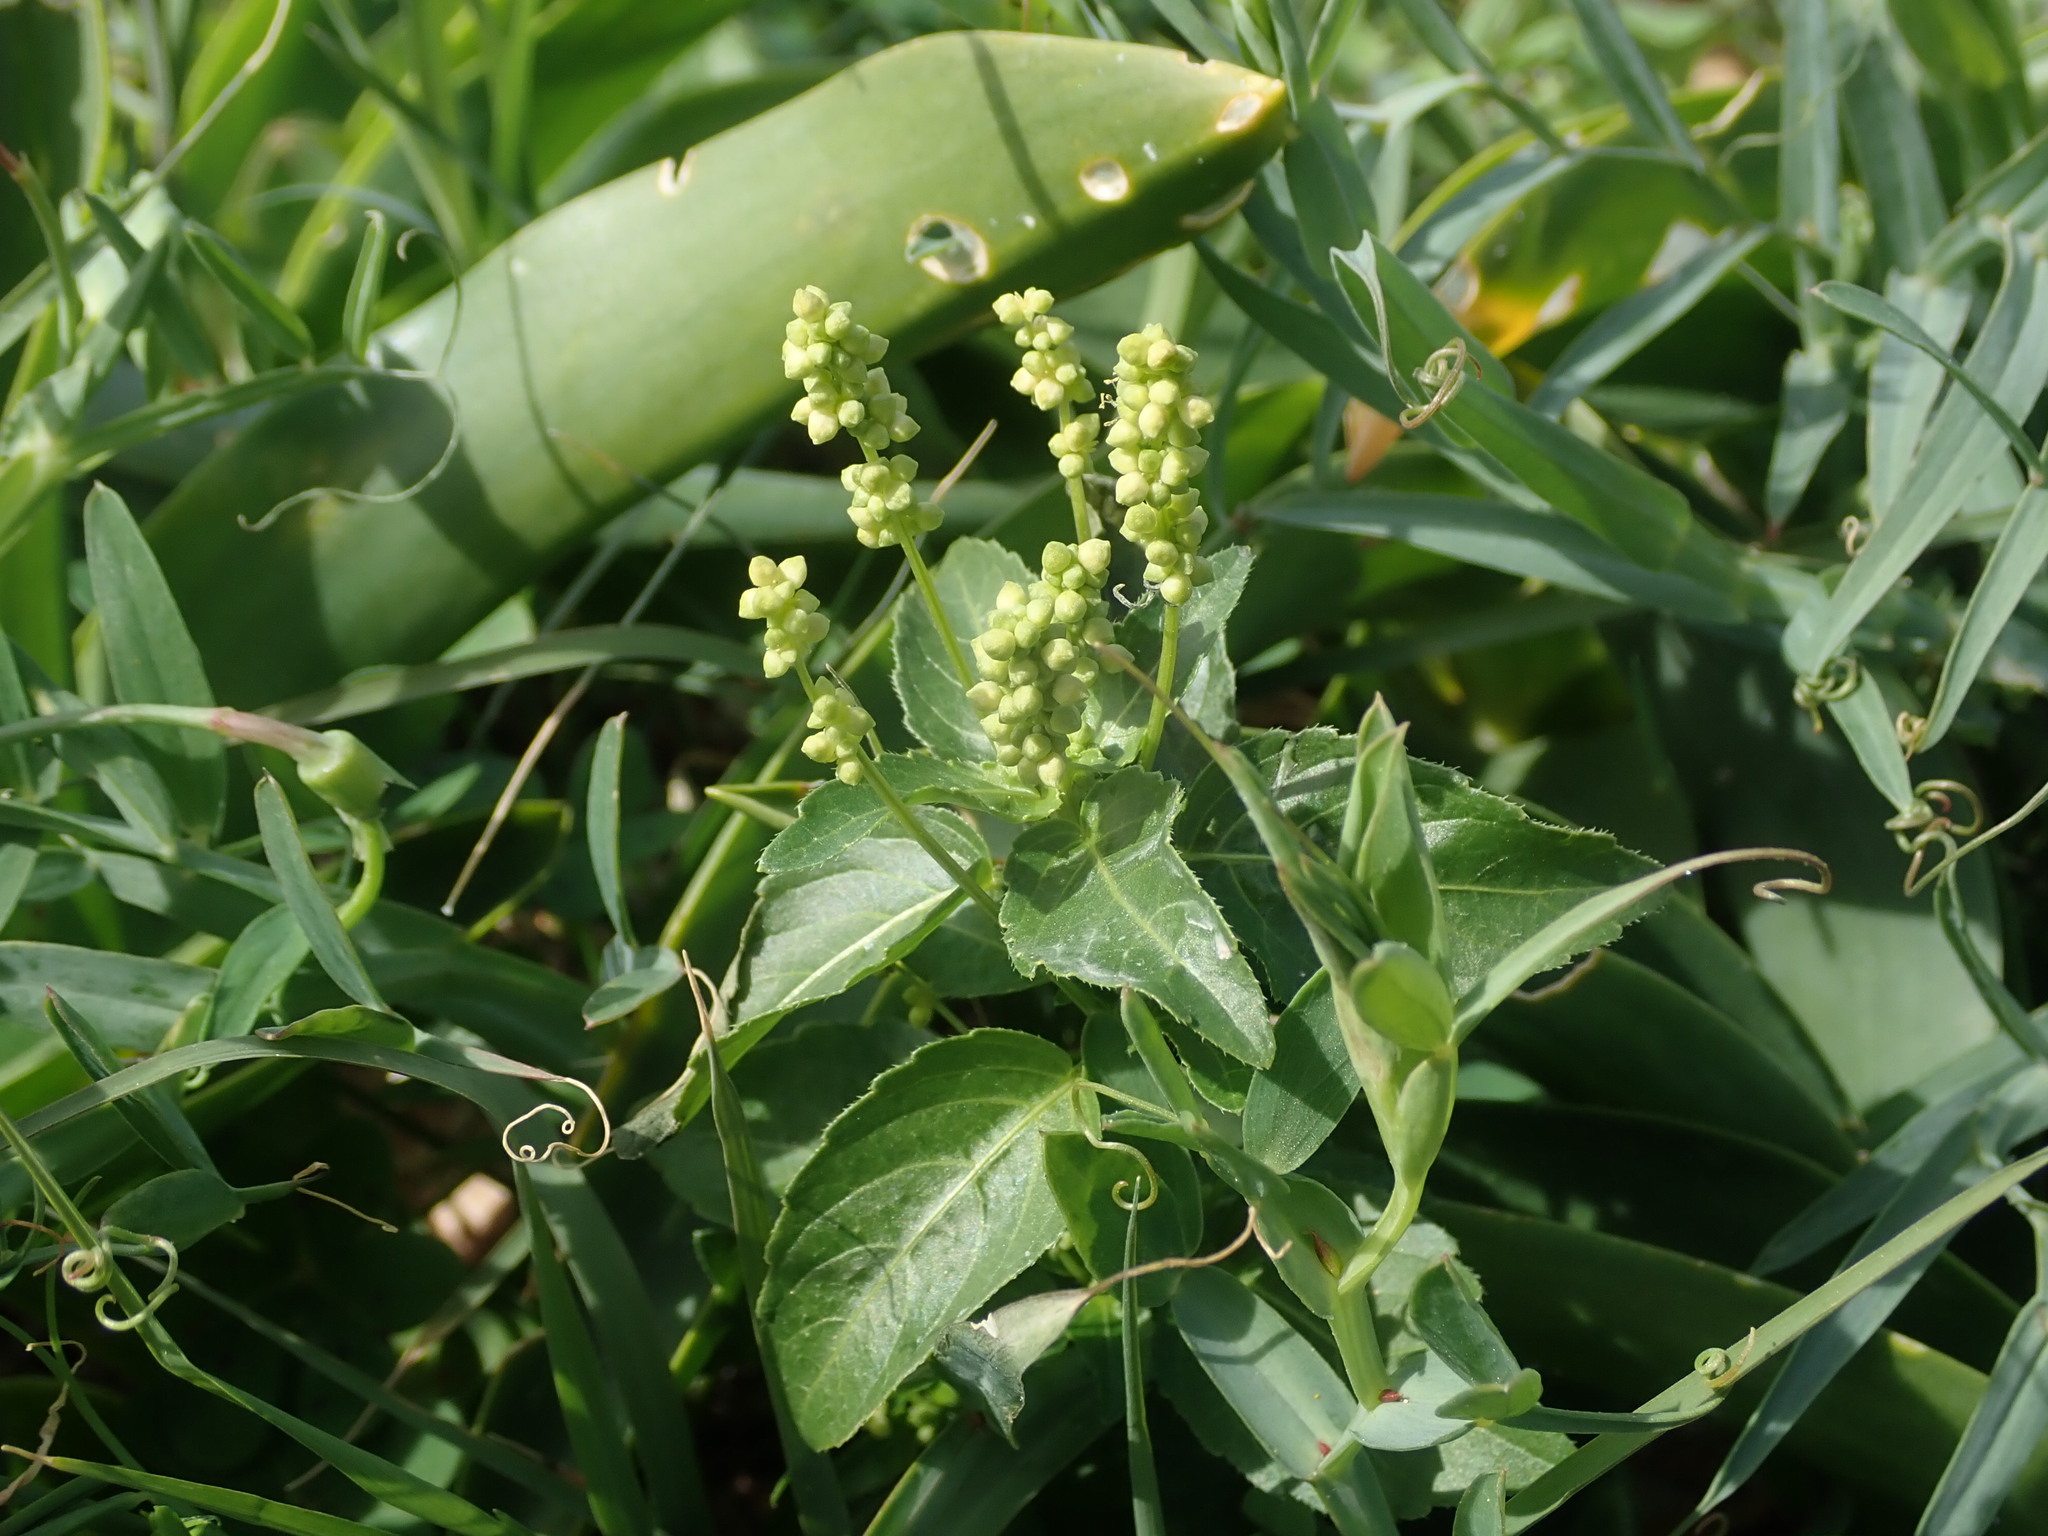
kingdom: Plantae
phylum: Tracheophyta
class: Magnoliopsida
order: Malpighiales
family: Euphorbiaceae
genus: Mercurialis
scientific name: Mercurialis annua
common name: Annual mercury
